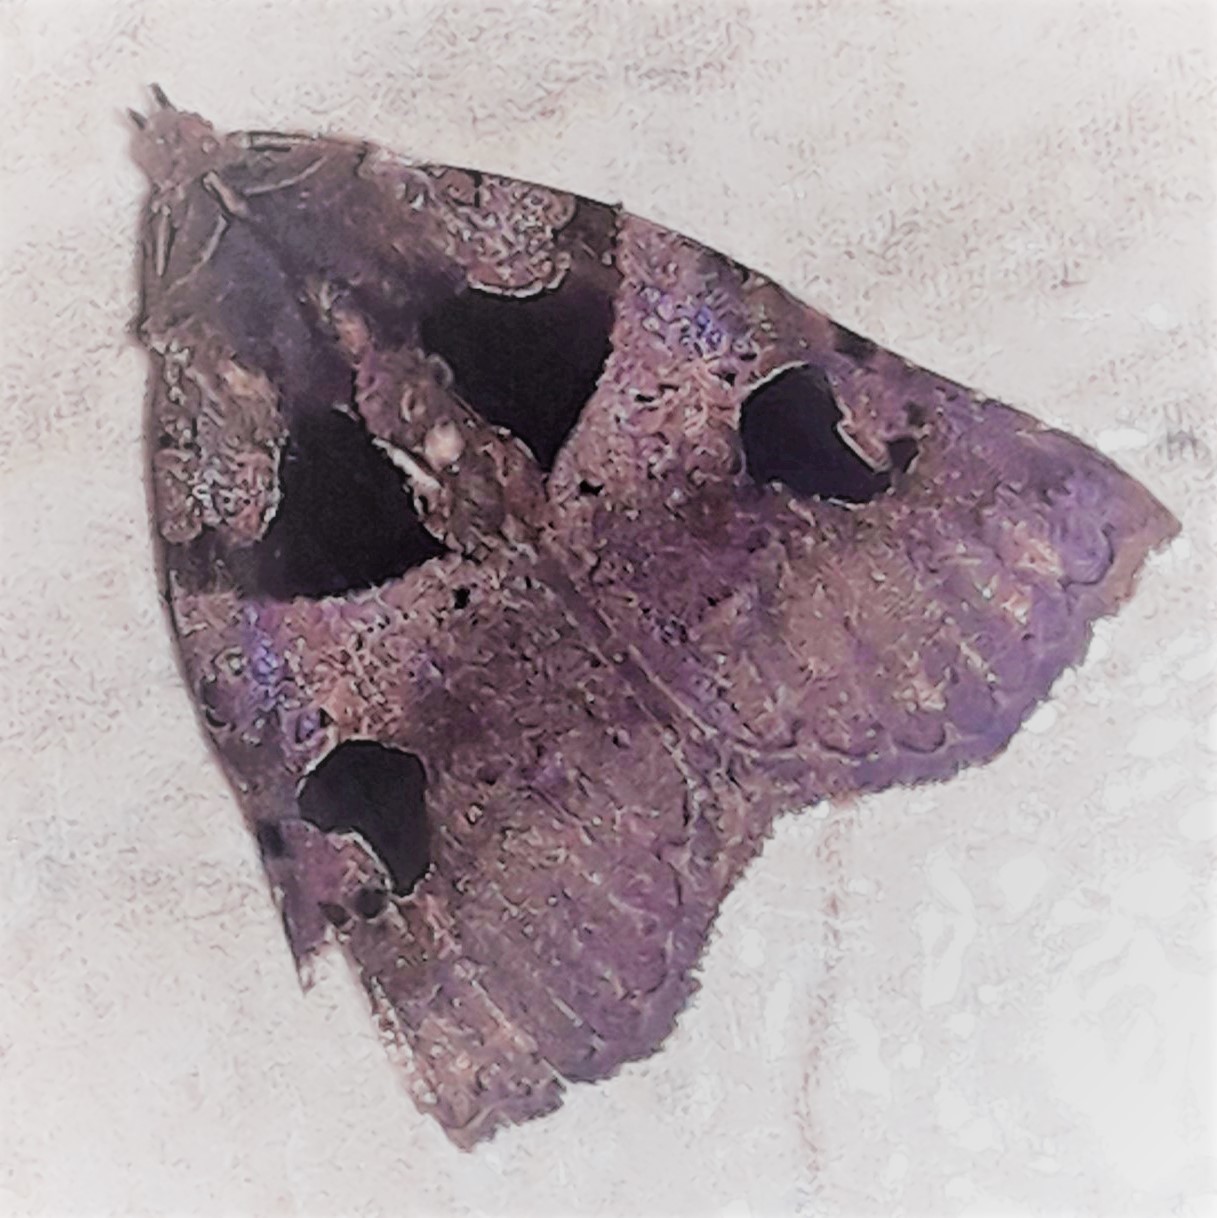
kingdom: Animalia
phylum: Arthropoda
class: Insecta
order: Lepidoptera
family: Erebidae
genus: Athyrma
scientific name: Athyrma ganglio
